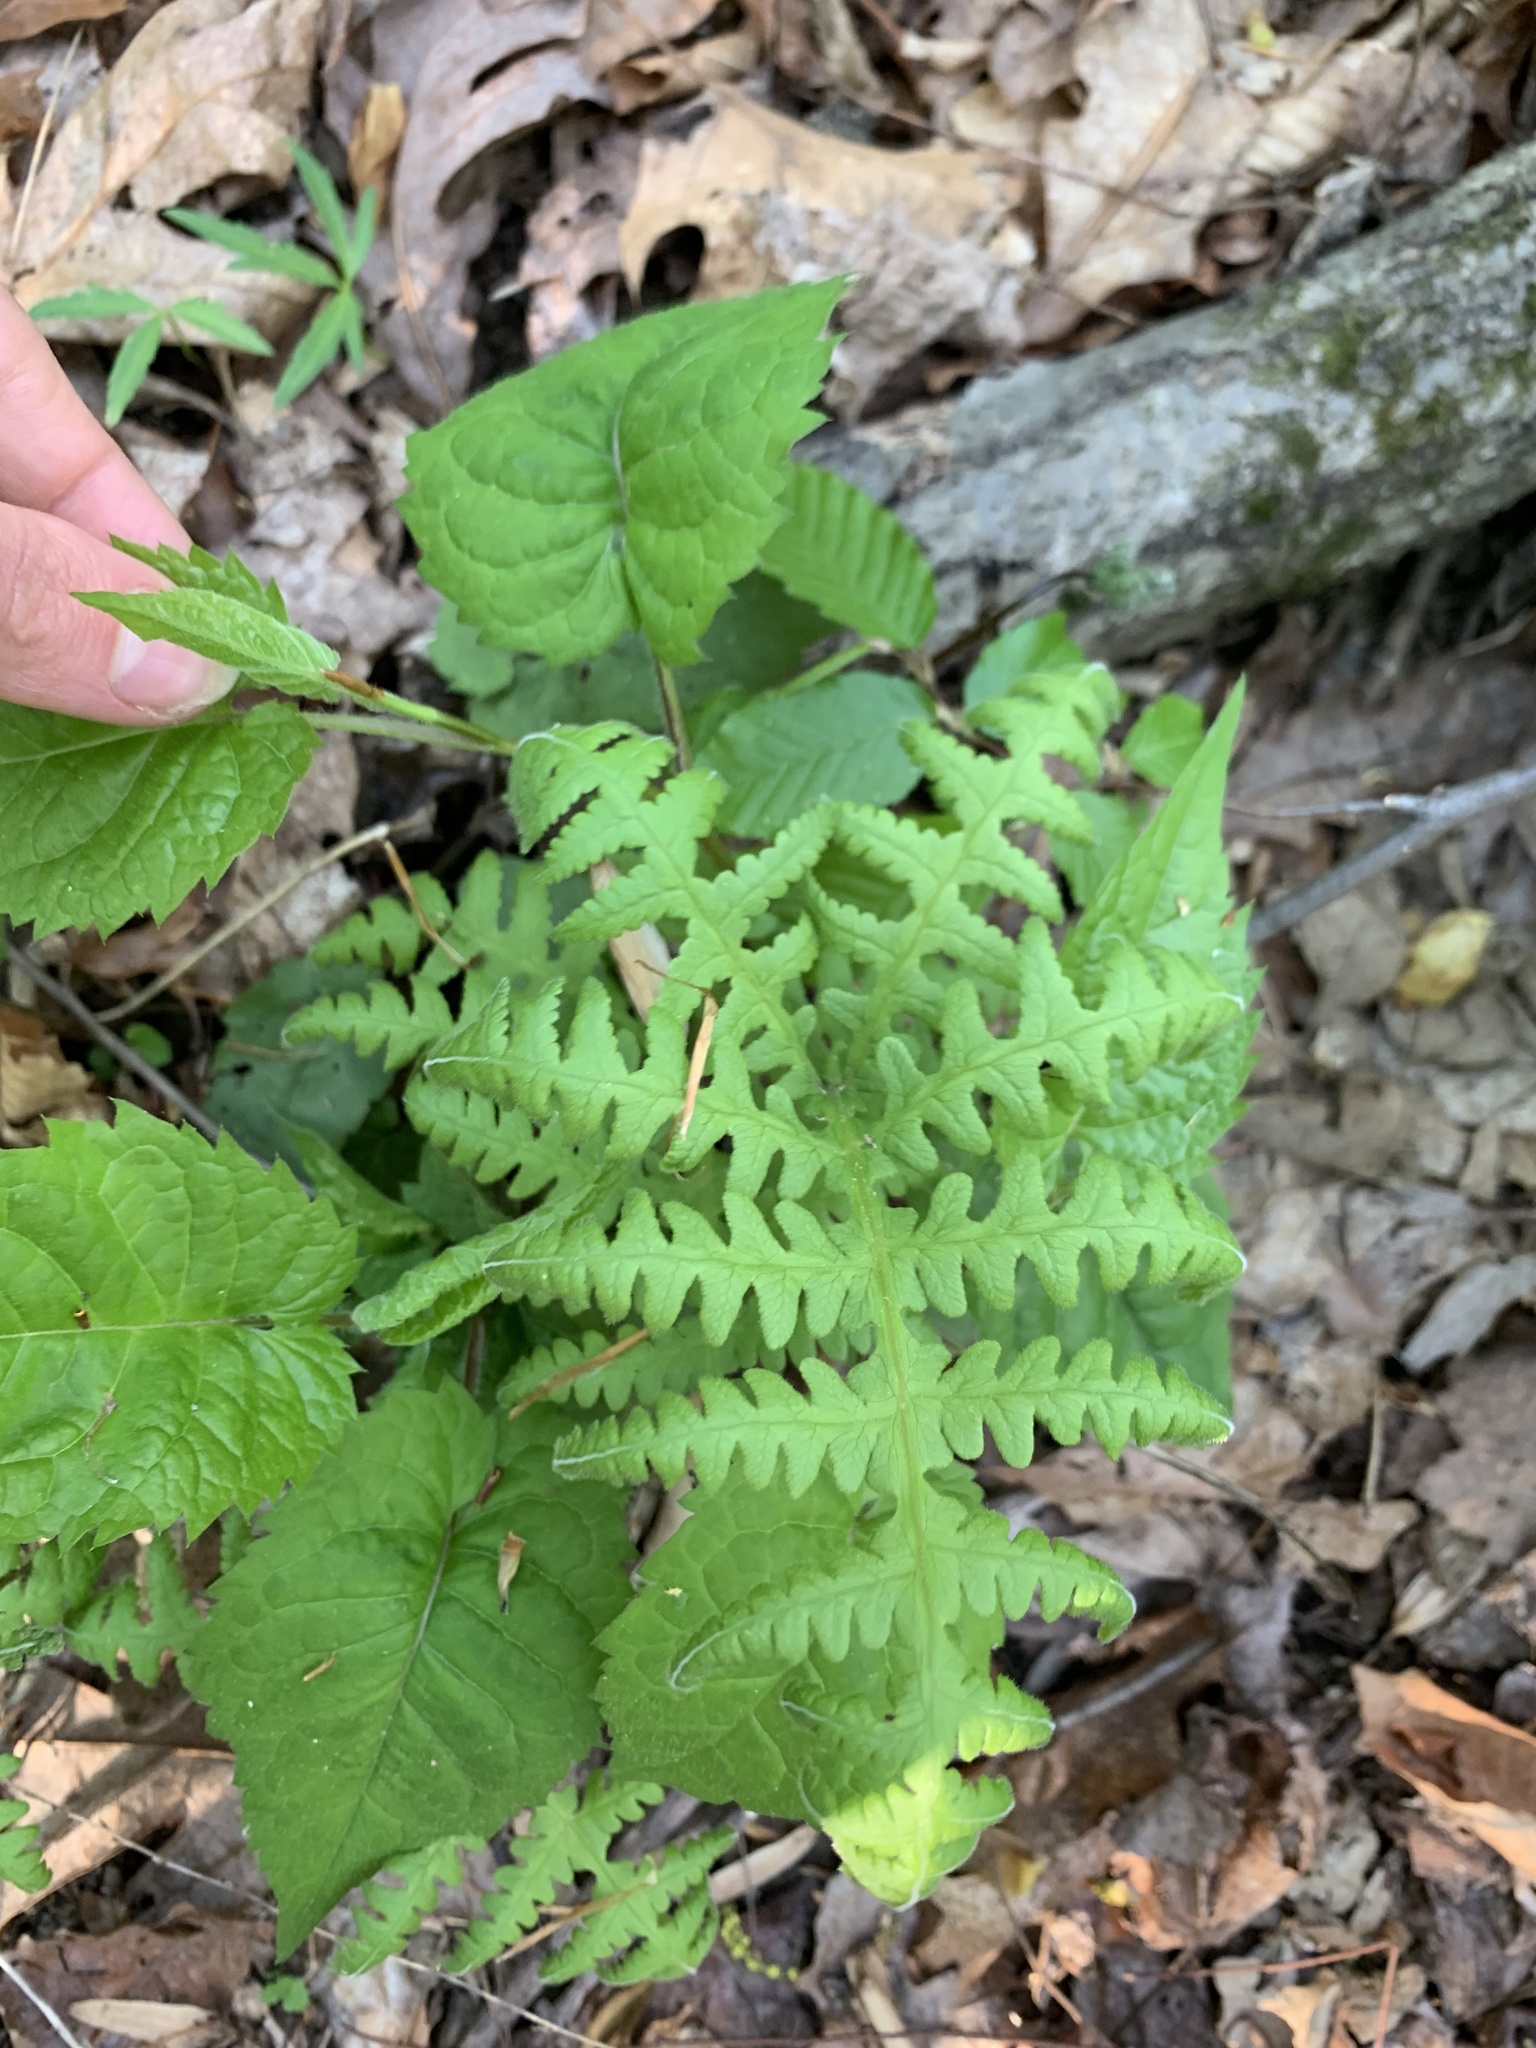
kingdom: Plantae
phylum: Tracheophyta
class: Polypodiopsida
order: Polypodiales
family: Thelypteridaceae
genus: Phegopteris
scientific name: Phegopteris hexagonoptera
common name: Broad beech fern
